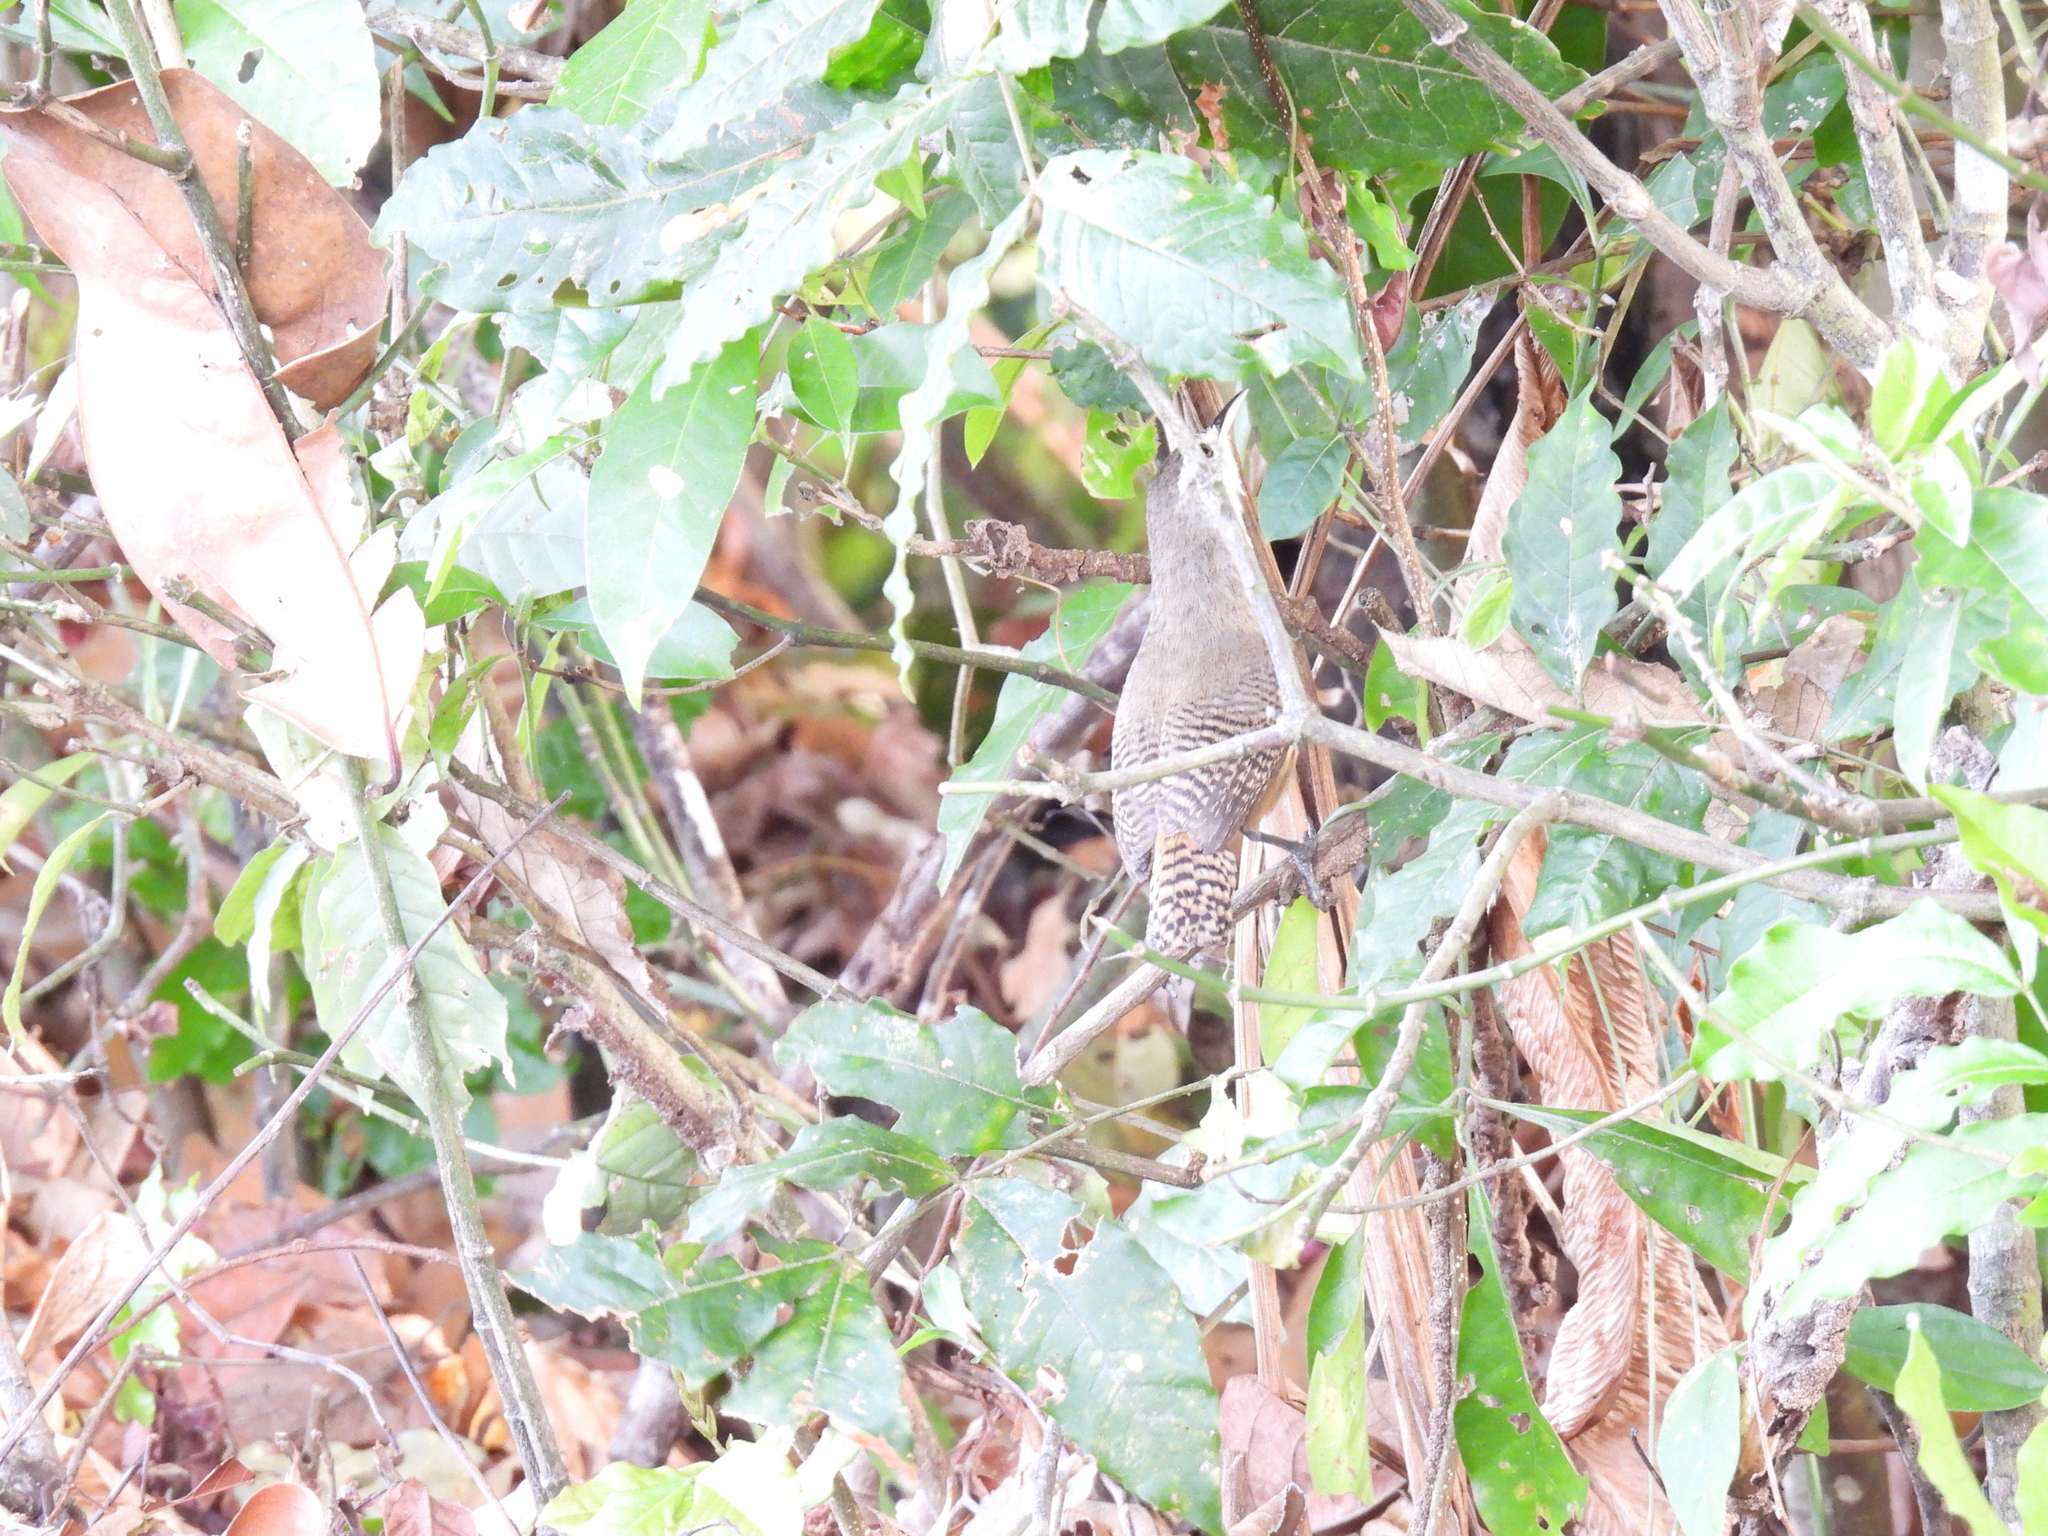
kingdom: Animalia
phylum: Chordata
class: Aves
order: Passeriformes
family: Troglodytidae
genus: Cantorchilus
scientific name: Cantorchilus leucotis
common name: Buff-breasted wren
